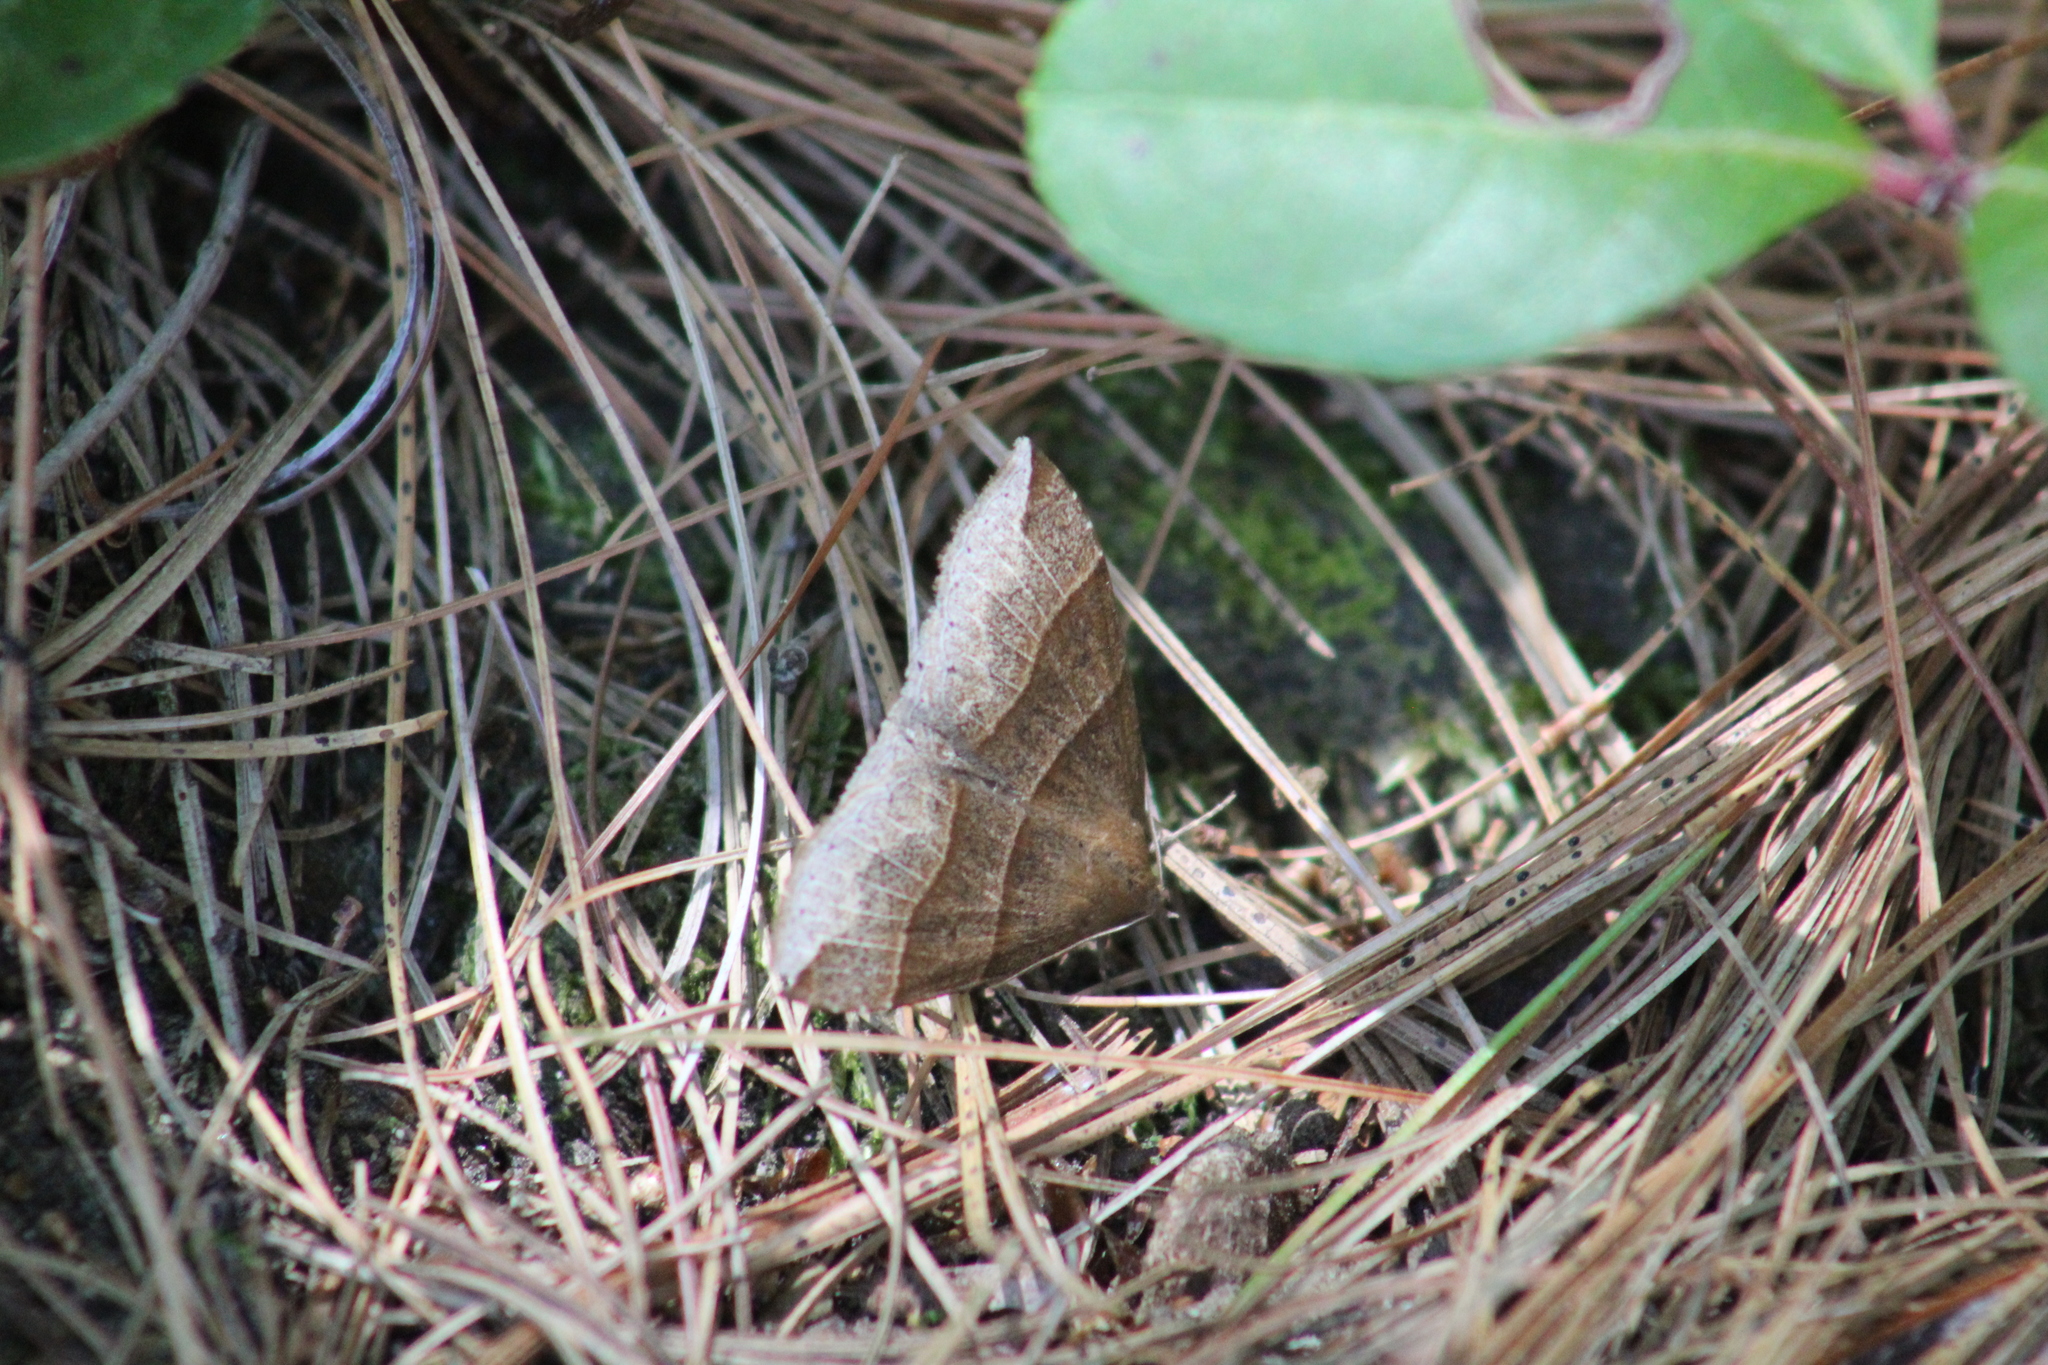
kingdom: Animalia
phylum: Arthropoda
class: Insecta
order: Lepidoptera
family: Erebidae
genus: Parallelia
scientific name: Parallelia bistriaris
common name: Maple looper moth
